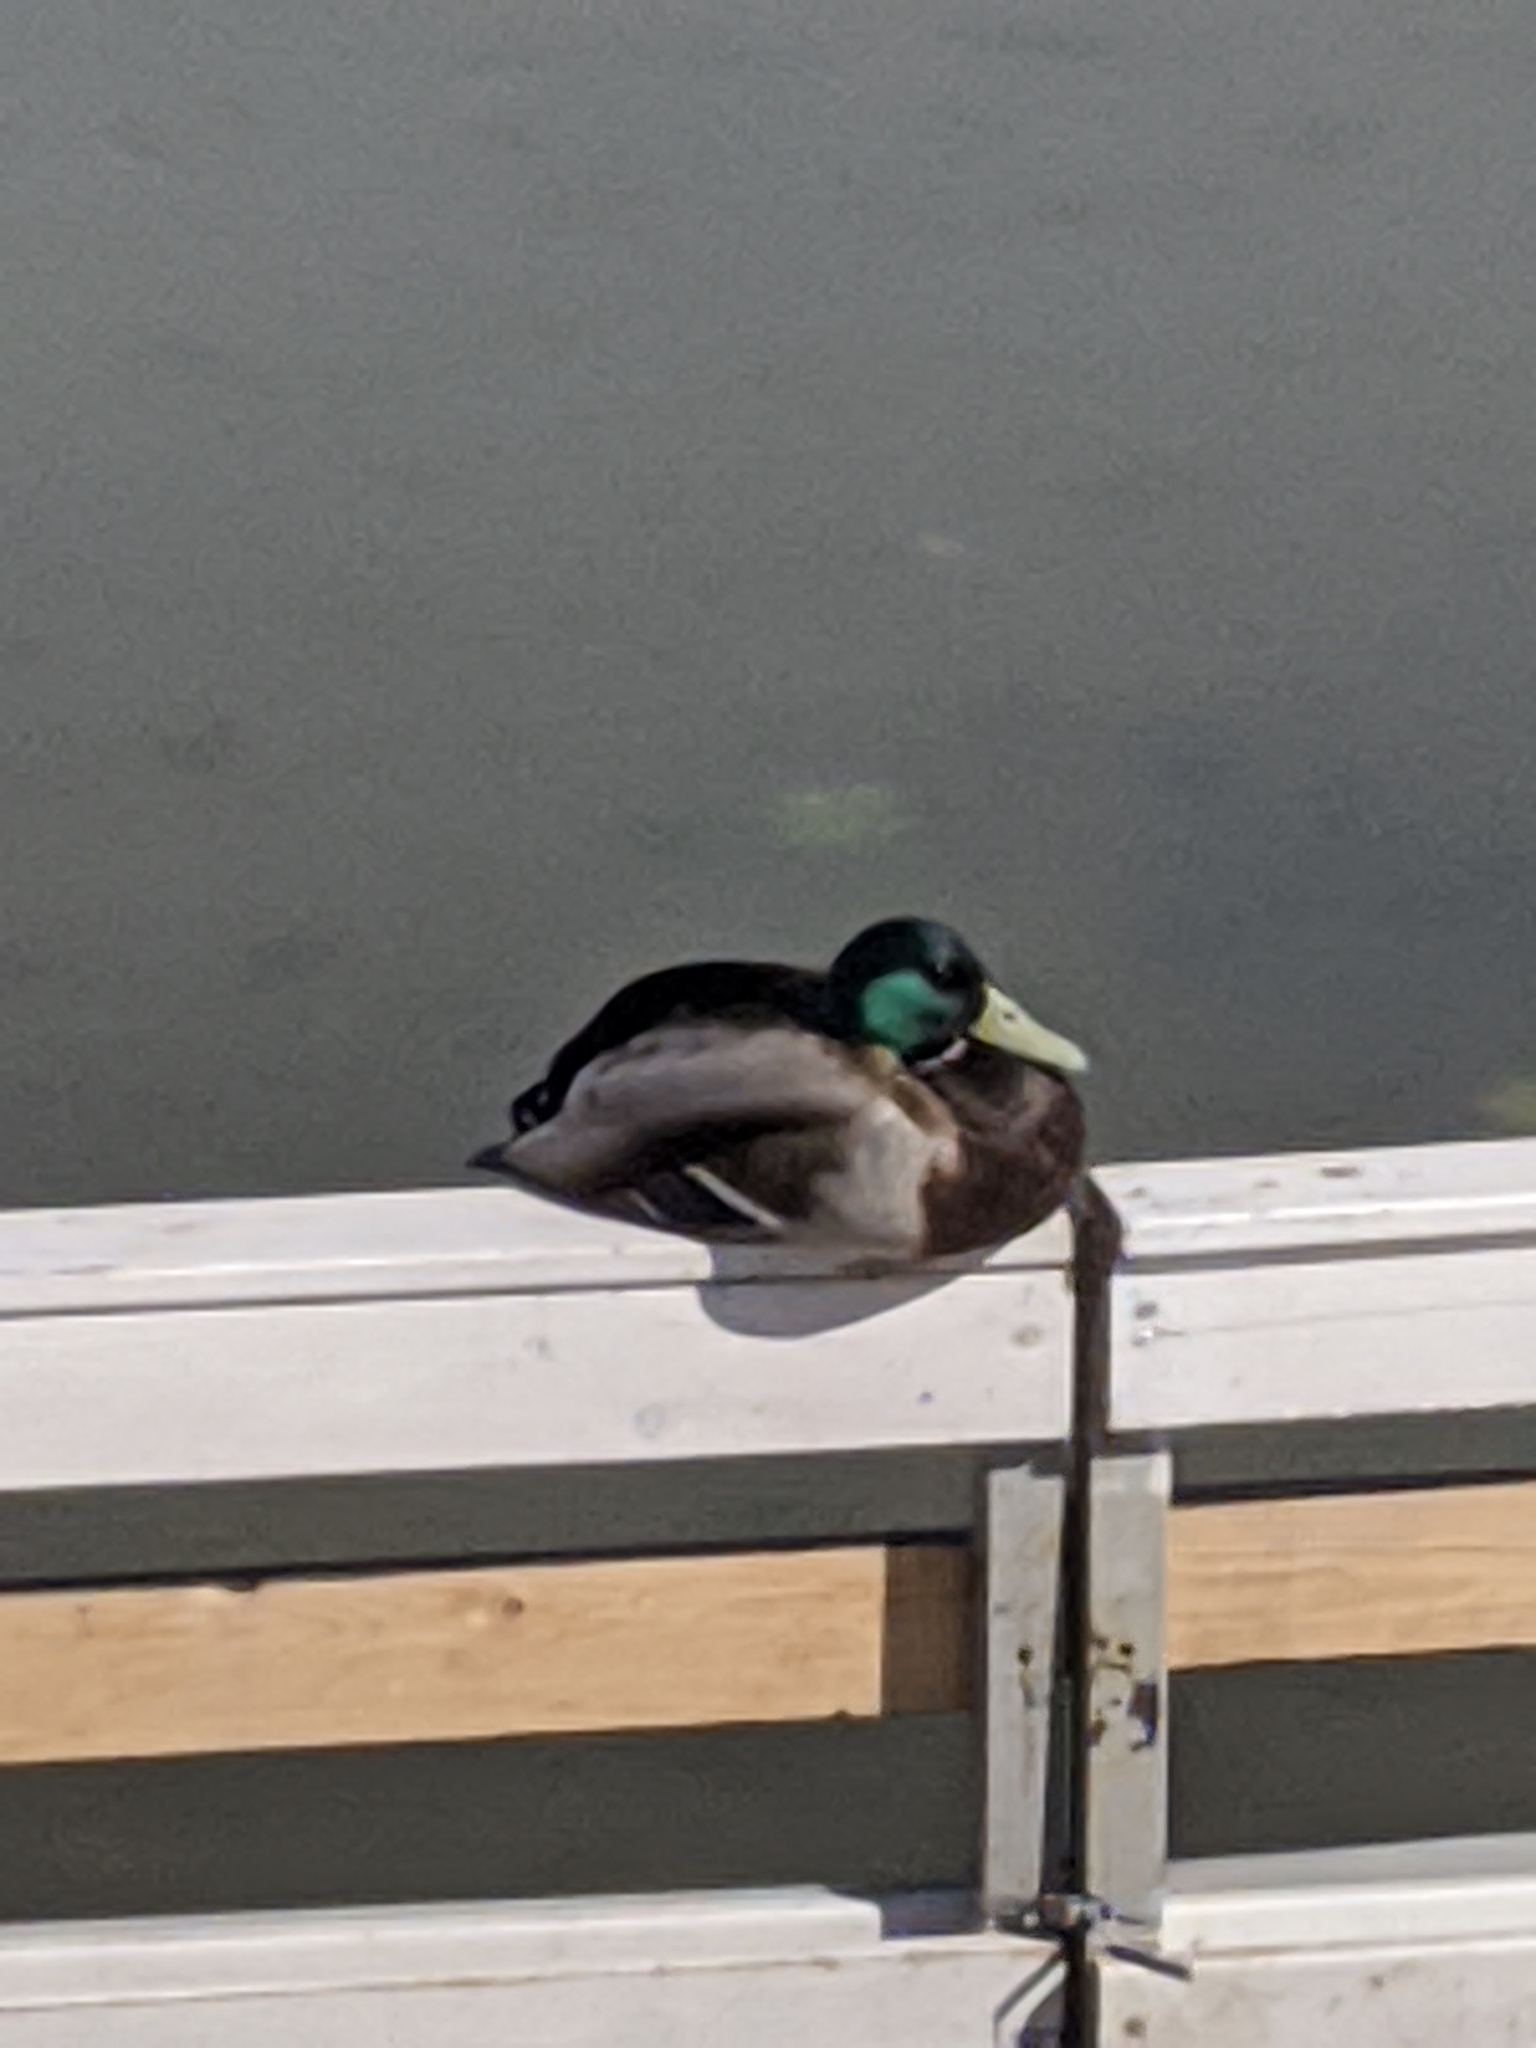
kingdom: Animalia
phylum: Chordata
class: Aves
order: Anseriformes
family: Anatidae
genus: Anas
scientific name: Anas platyrhynchos
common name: Mallard
